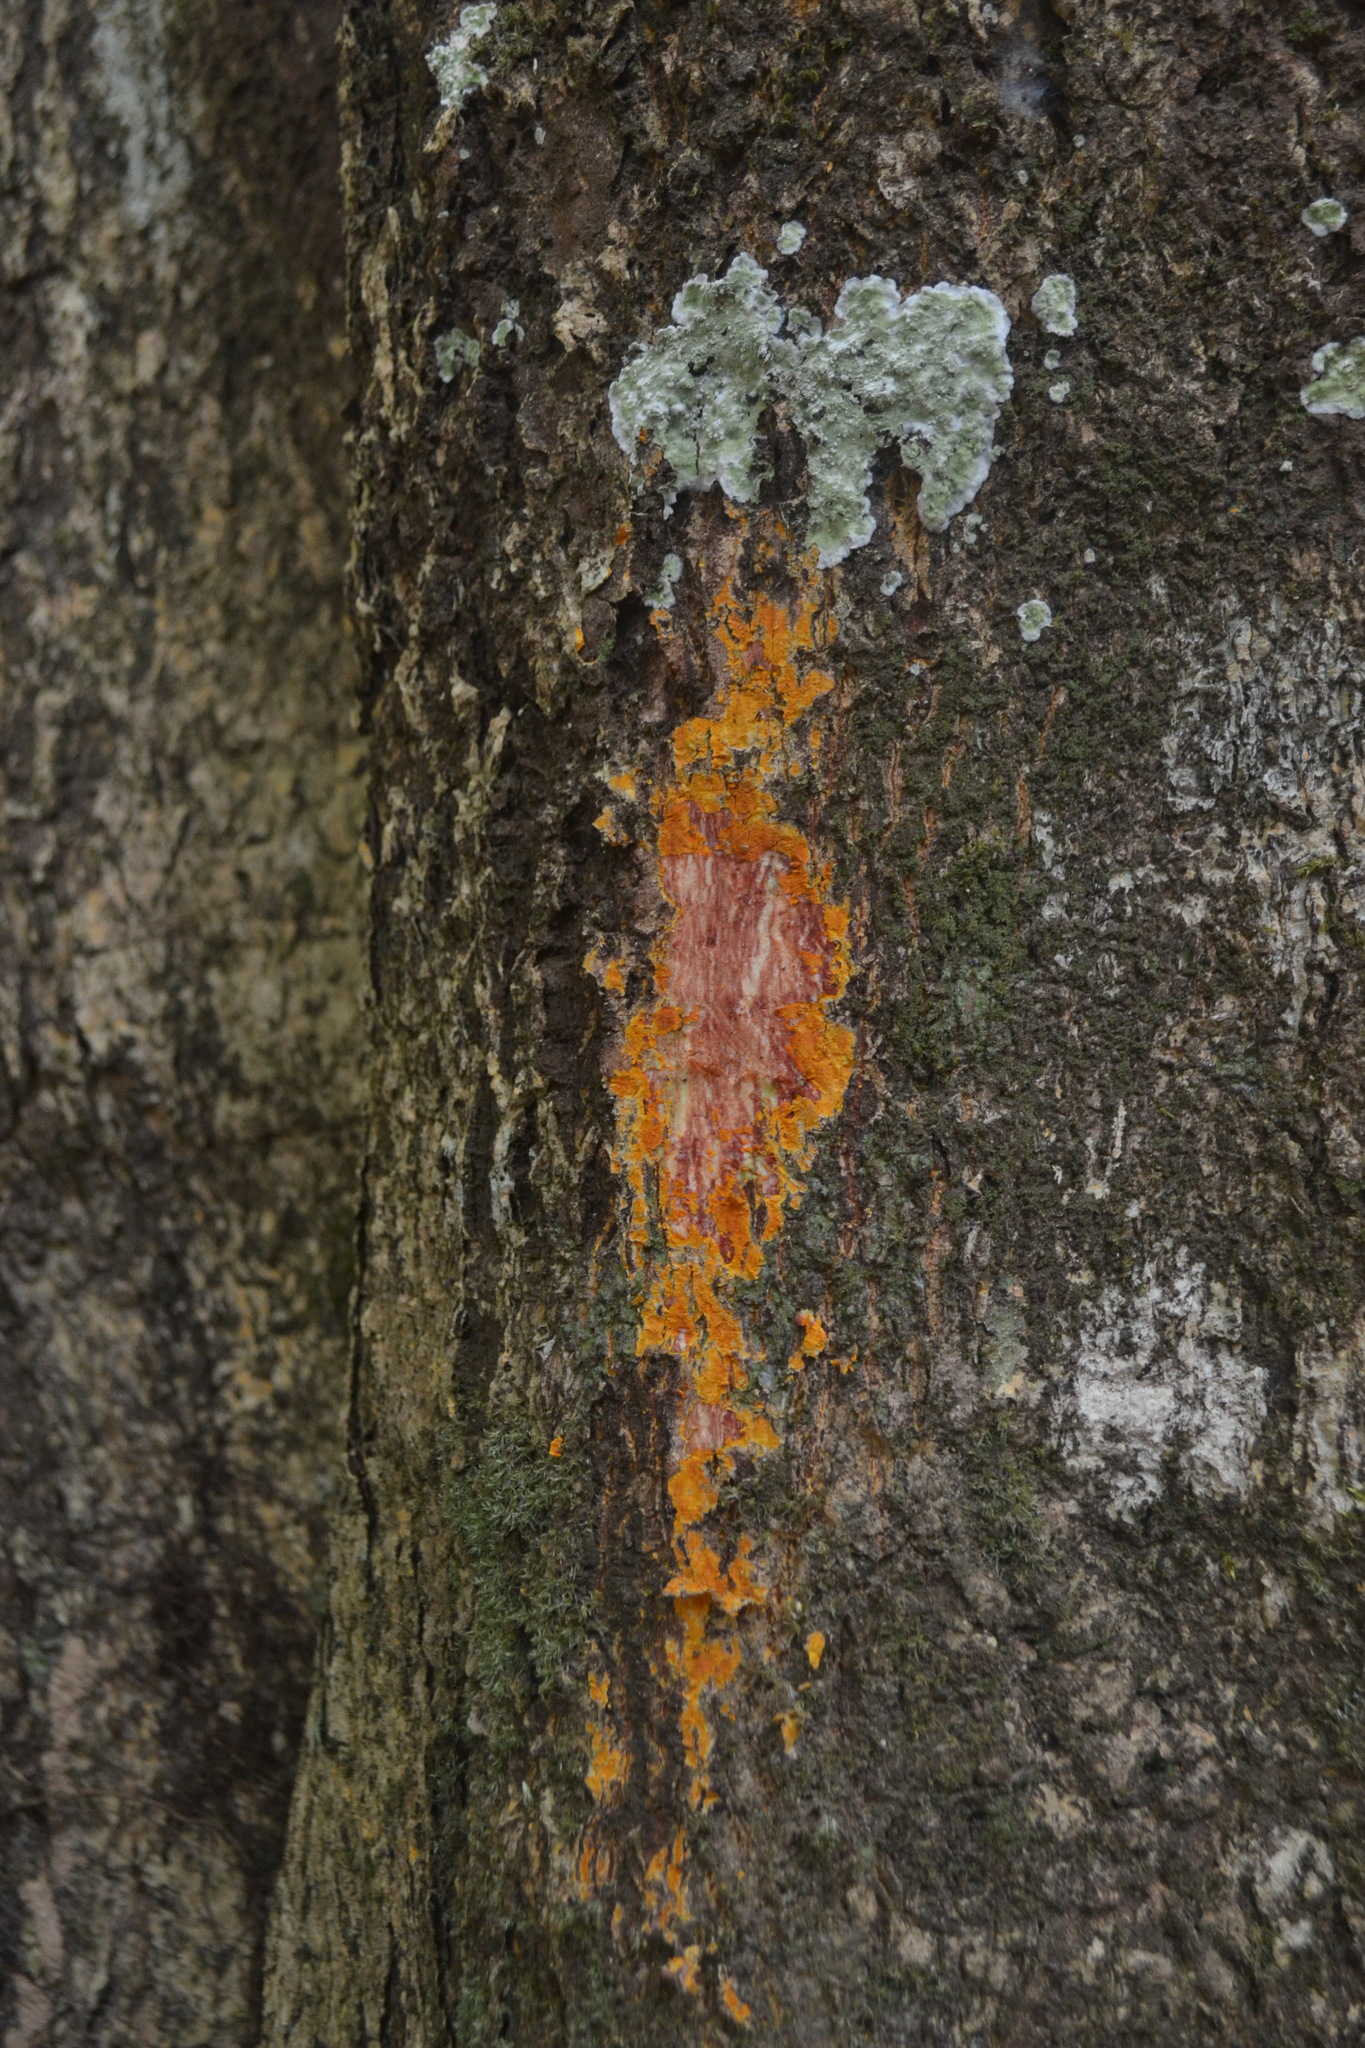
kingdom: Plantae
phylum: Tracheophyta
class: Magnoliopsida
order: Celastrales
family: Celastraceae
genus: Lophopetalum
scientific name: Lophopetalum wightianum
